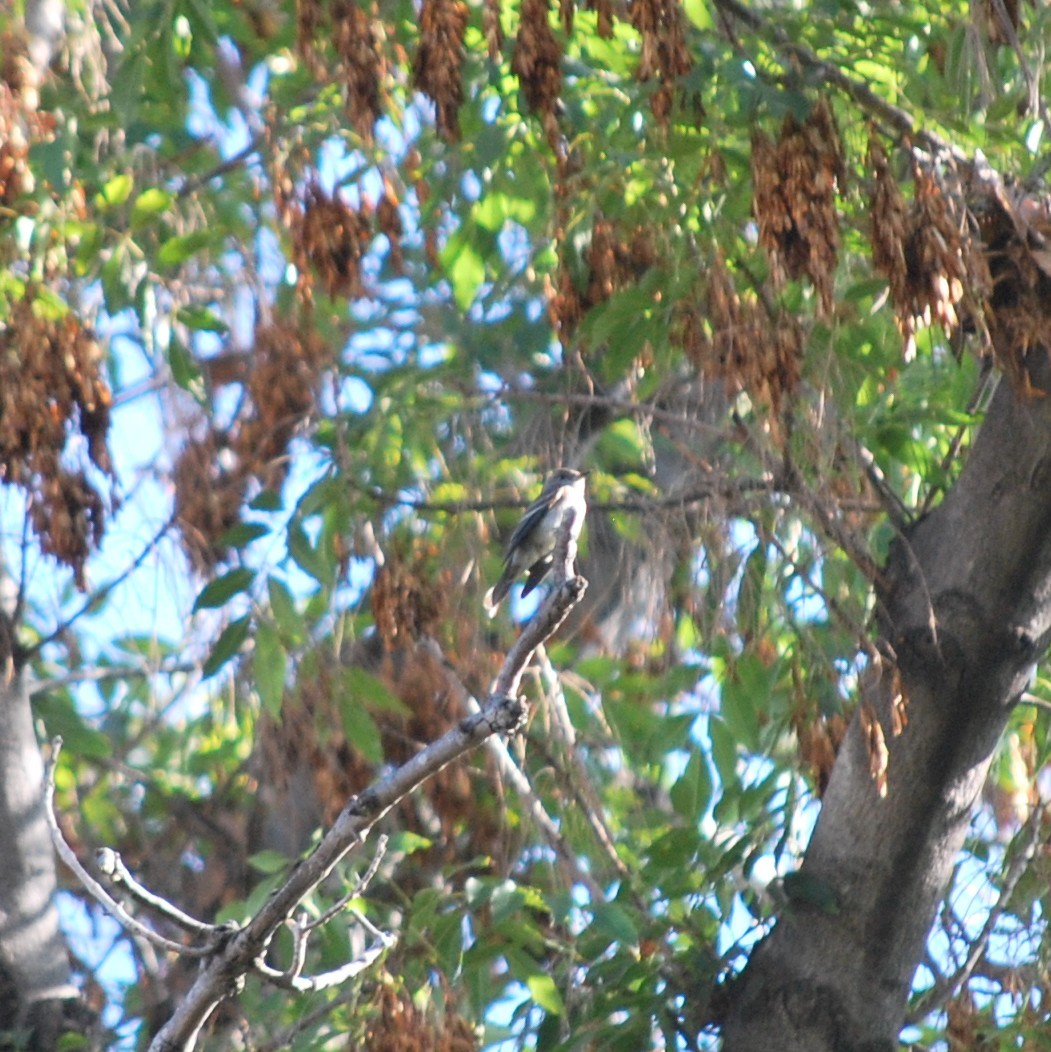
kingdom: Animalia
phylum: Chordata
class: Aves
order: Passeriformes
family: Tyrannidae
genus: Contopus
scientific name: Contopus sordidulus
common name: Western wood-pewee
